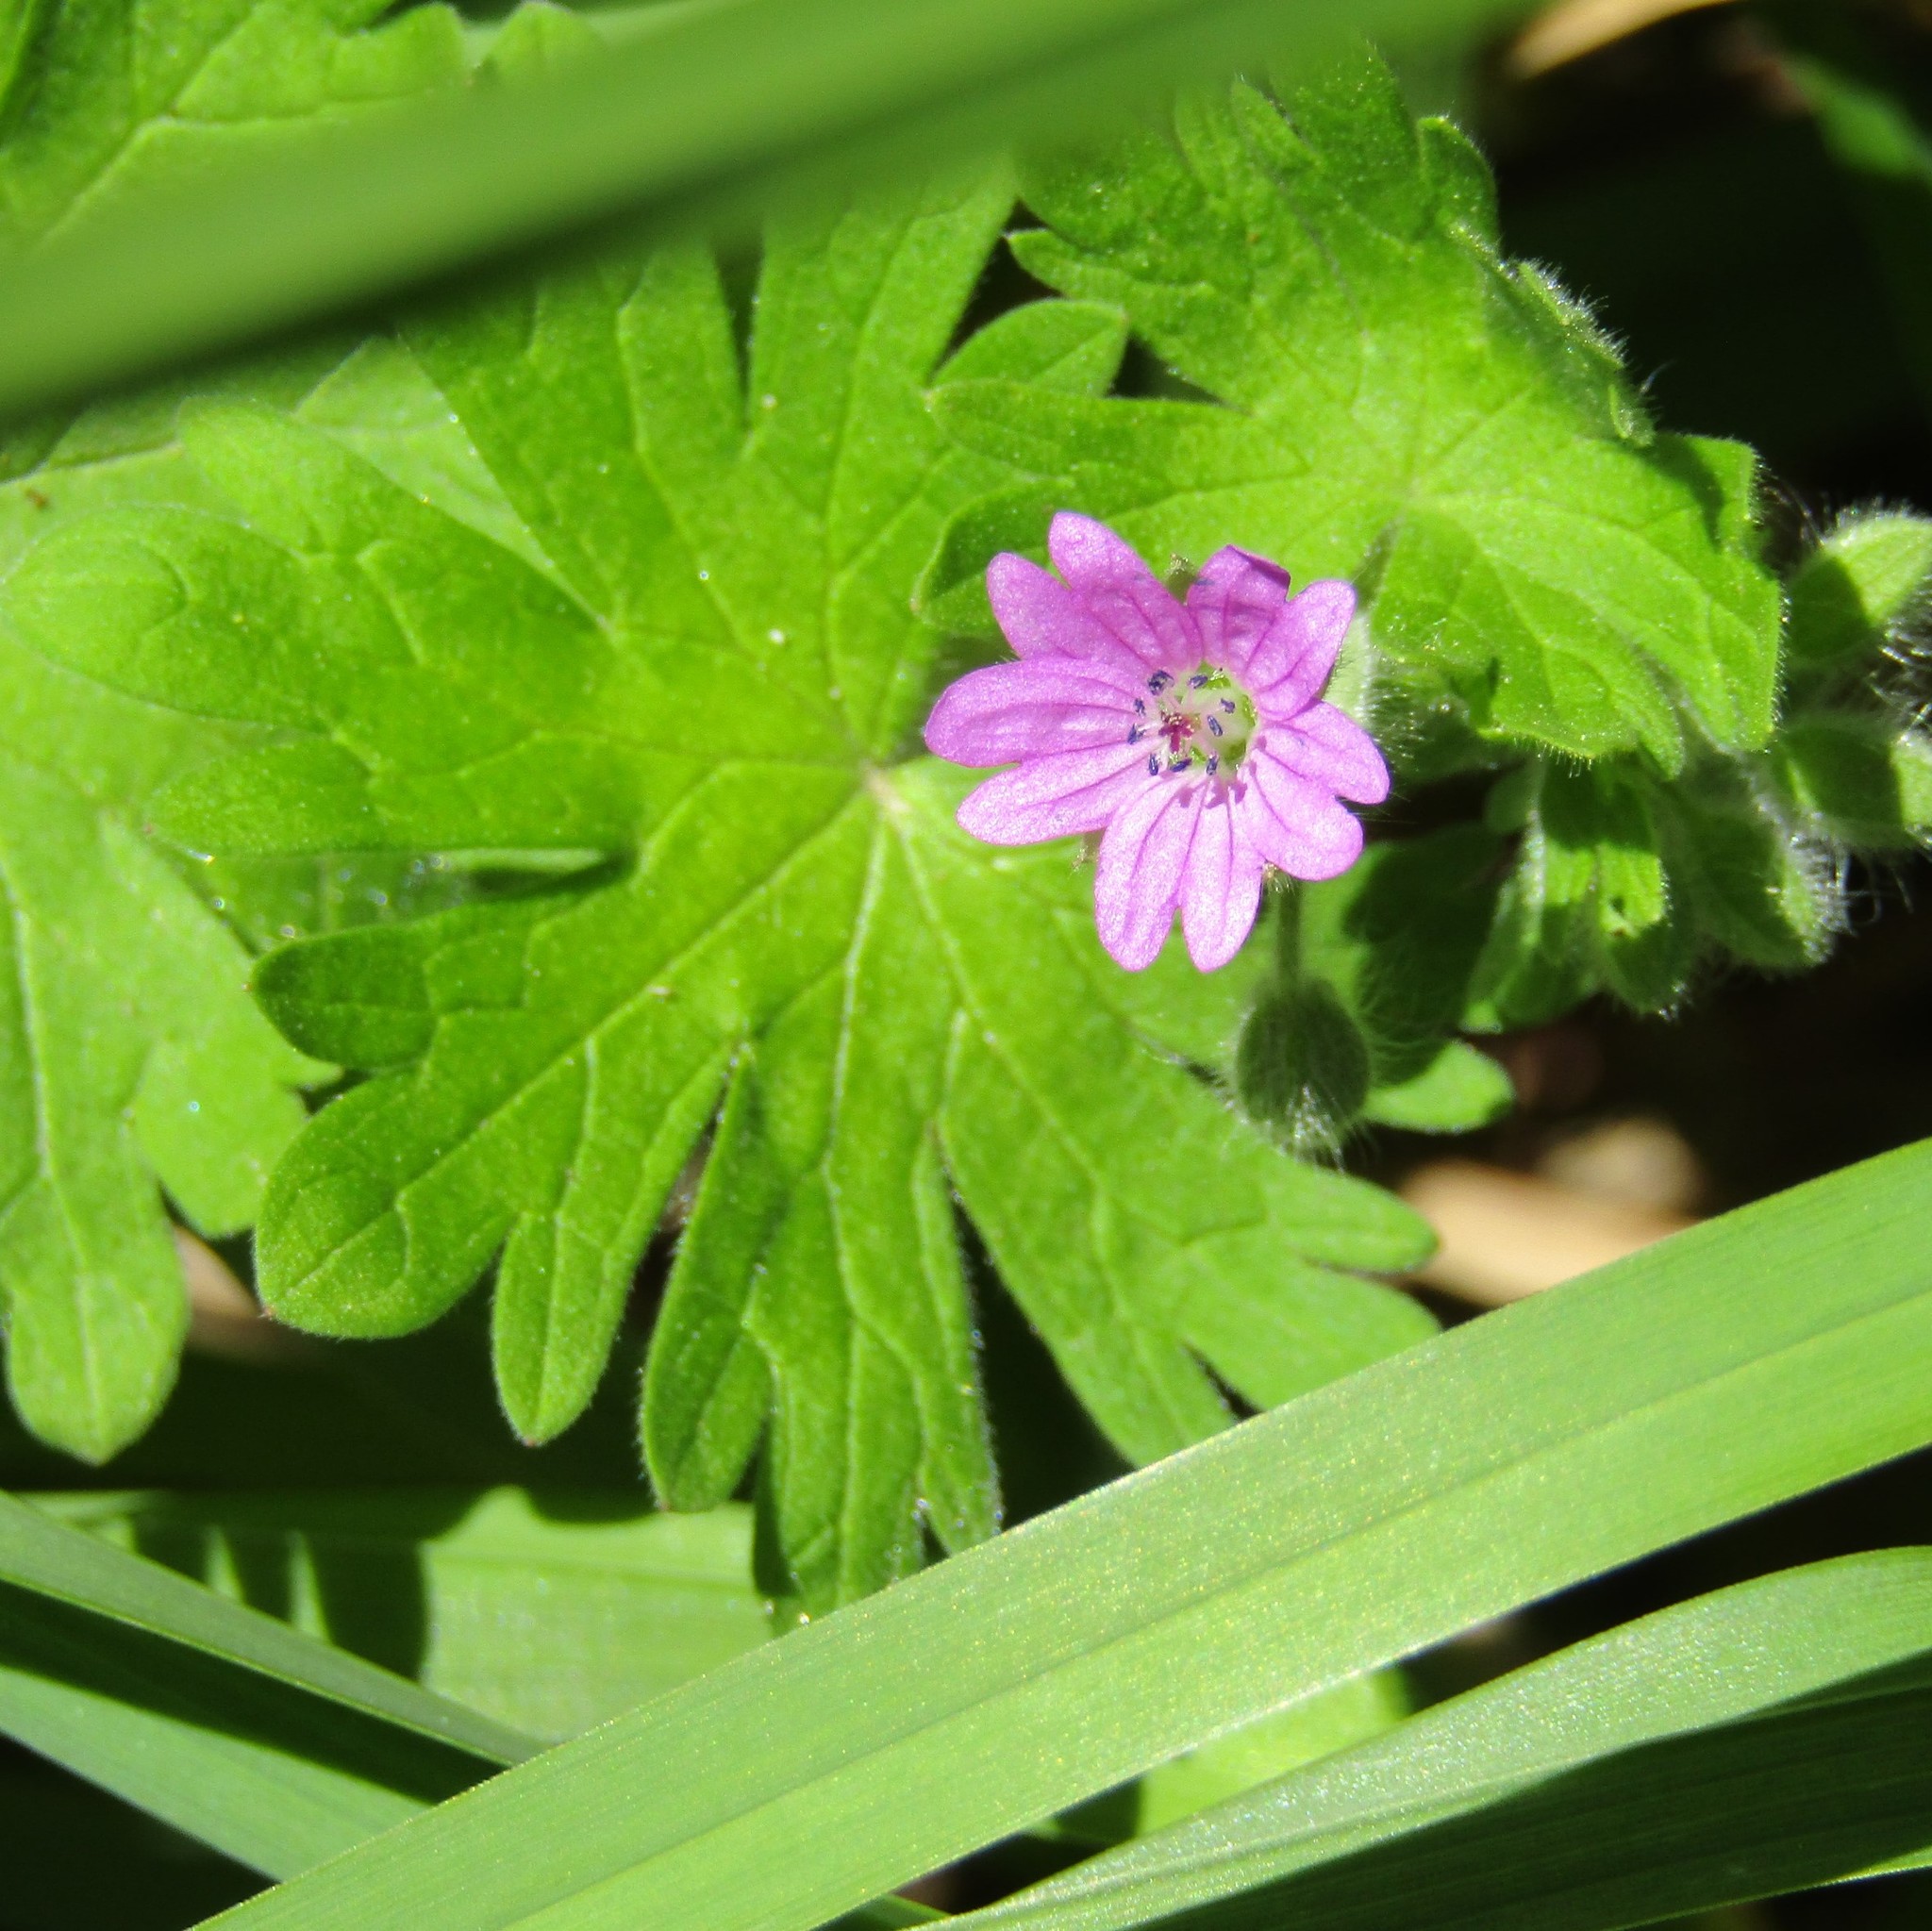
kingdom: Plantae
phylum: Tracheophyta
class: Magnoliopsida
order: Geraniales
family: Geraniaceae
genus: Geranium
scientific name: Geranium molle
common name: Dove's-foot crane's-bill
